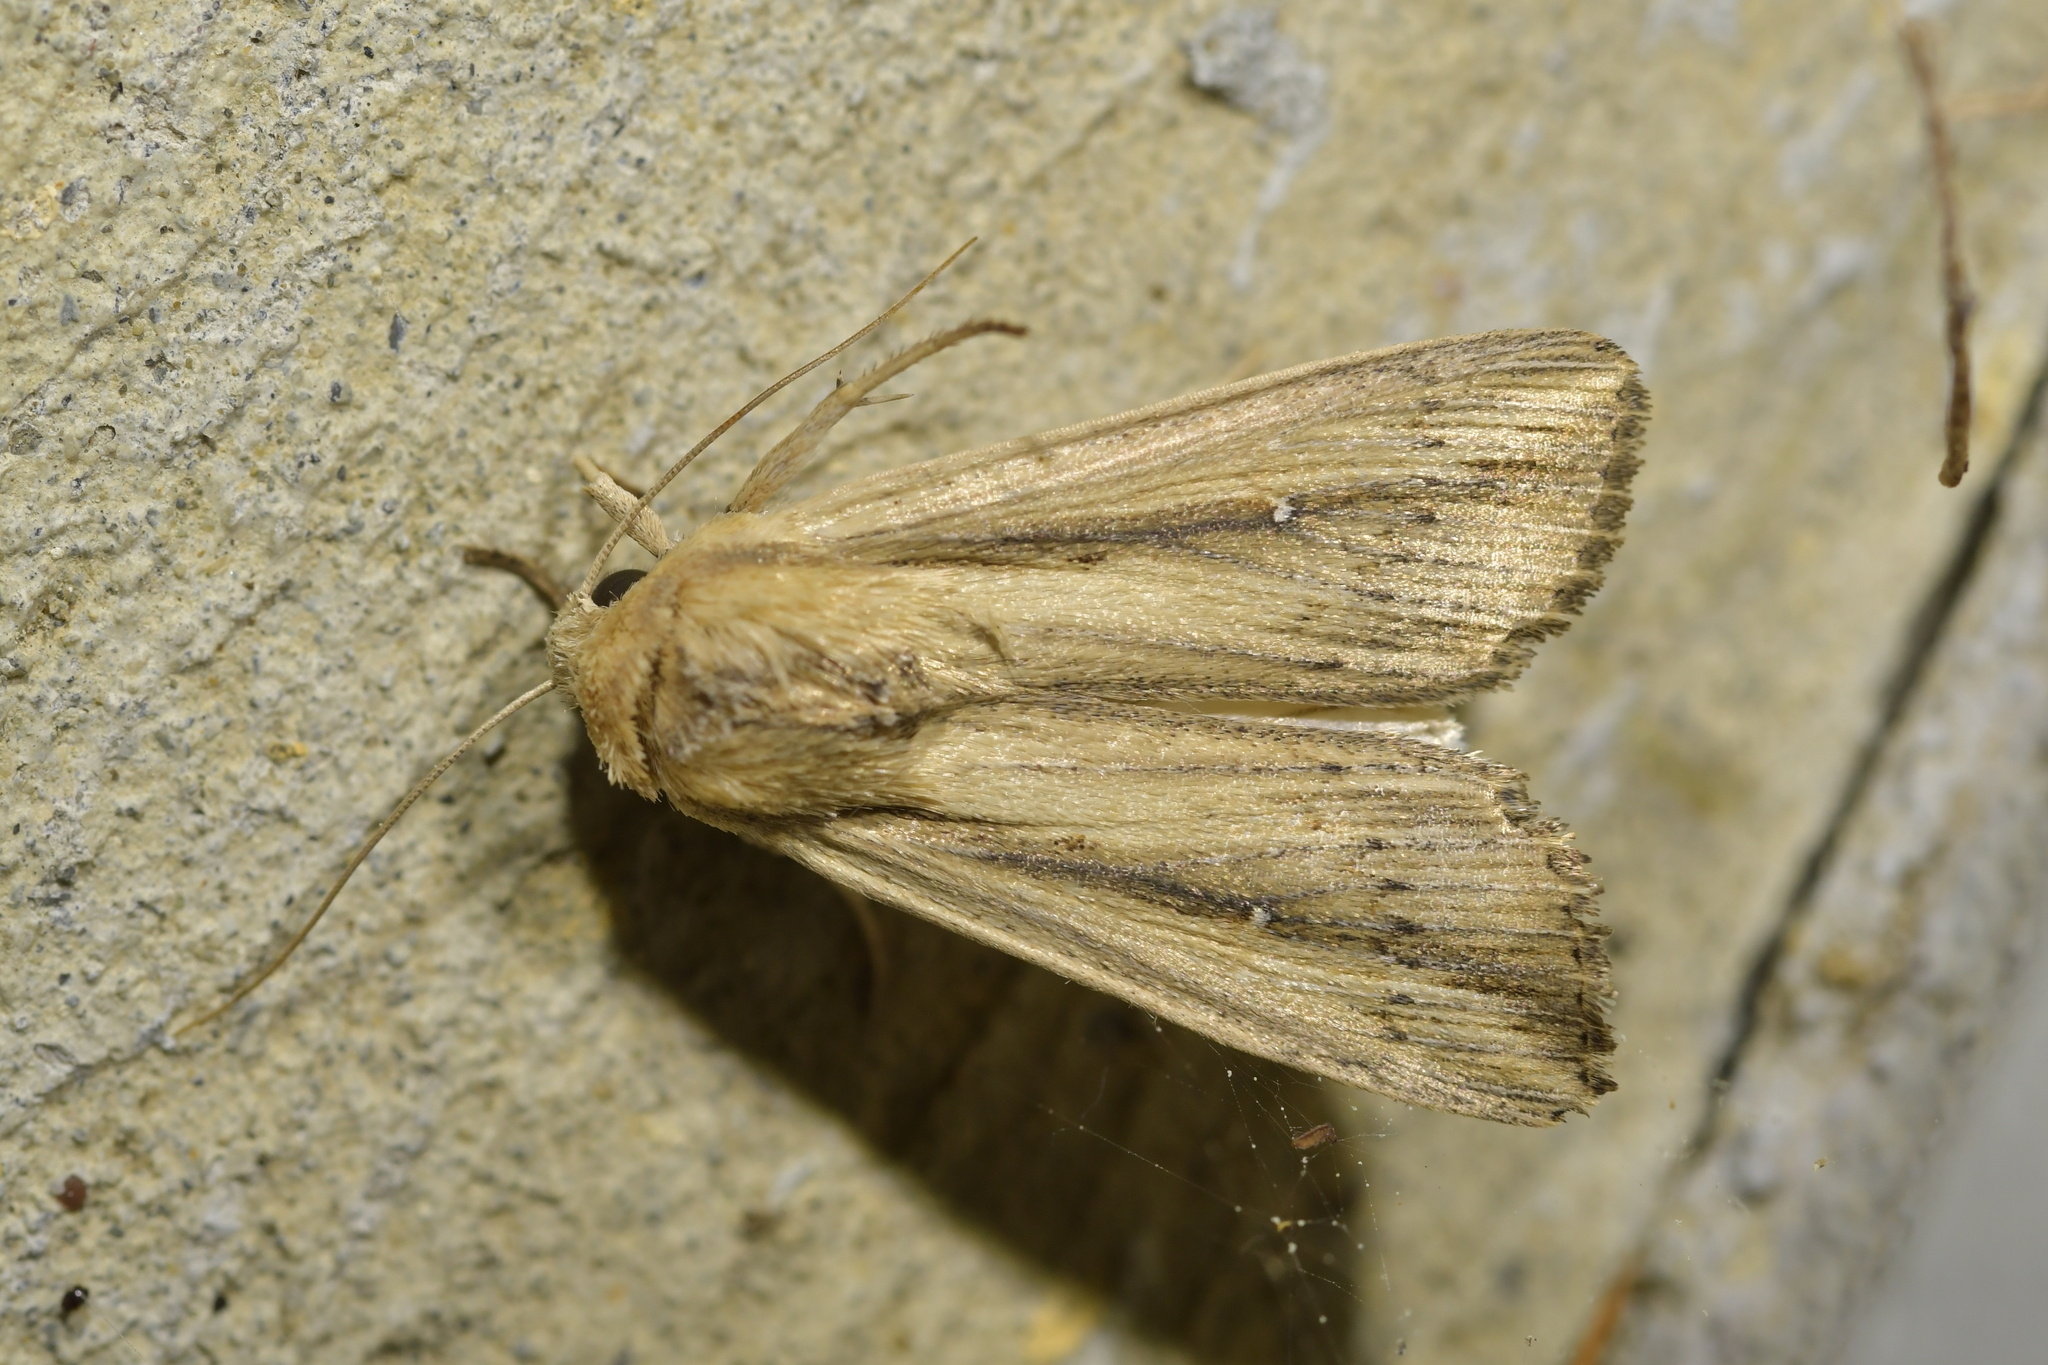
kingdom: Animalia
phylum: Arthropoda
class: Insecta
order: Lepidoptera
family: Noctuidae
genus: Leucania
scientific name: Leucania stenographa
